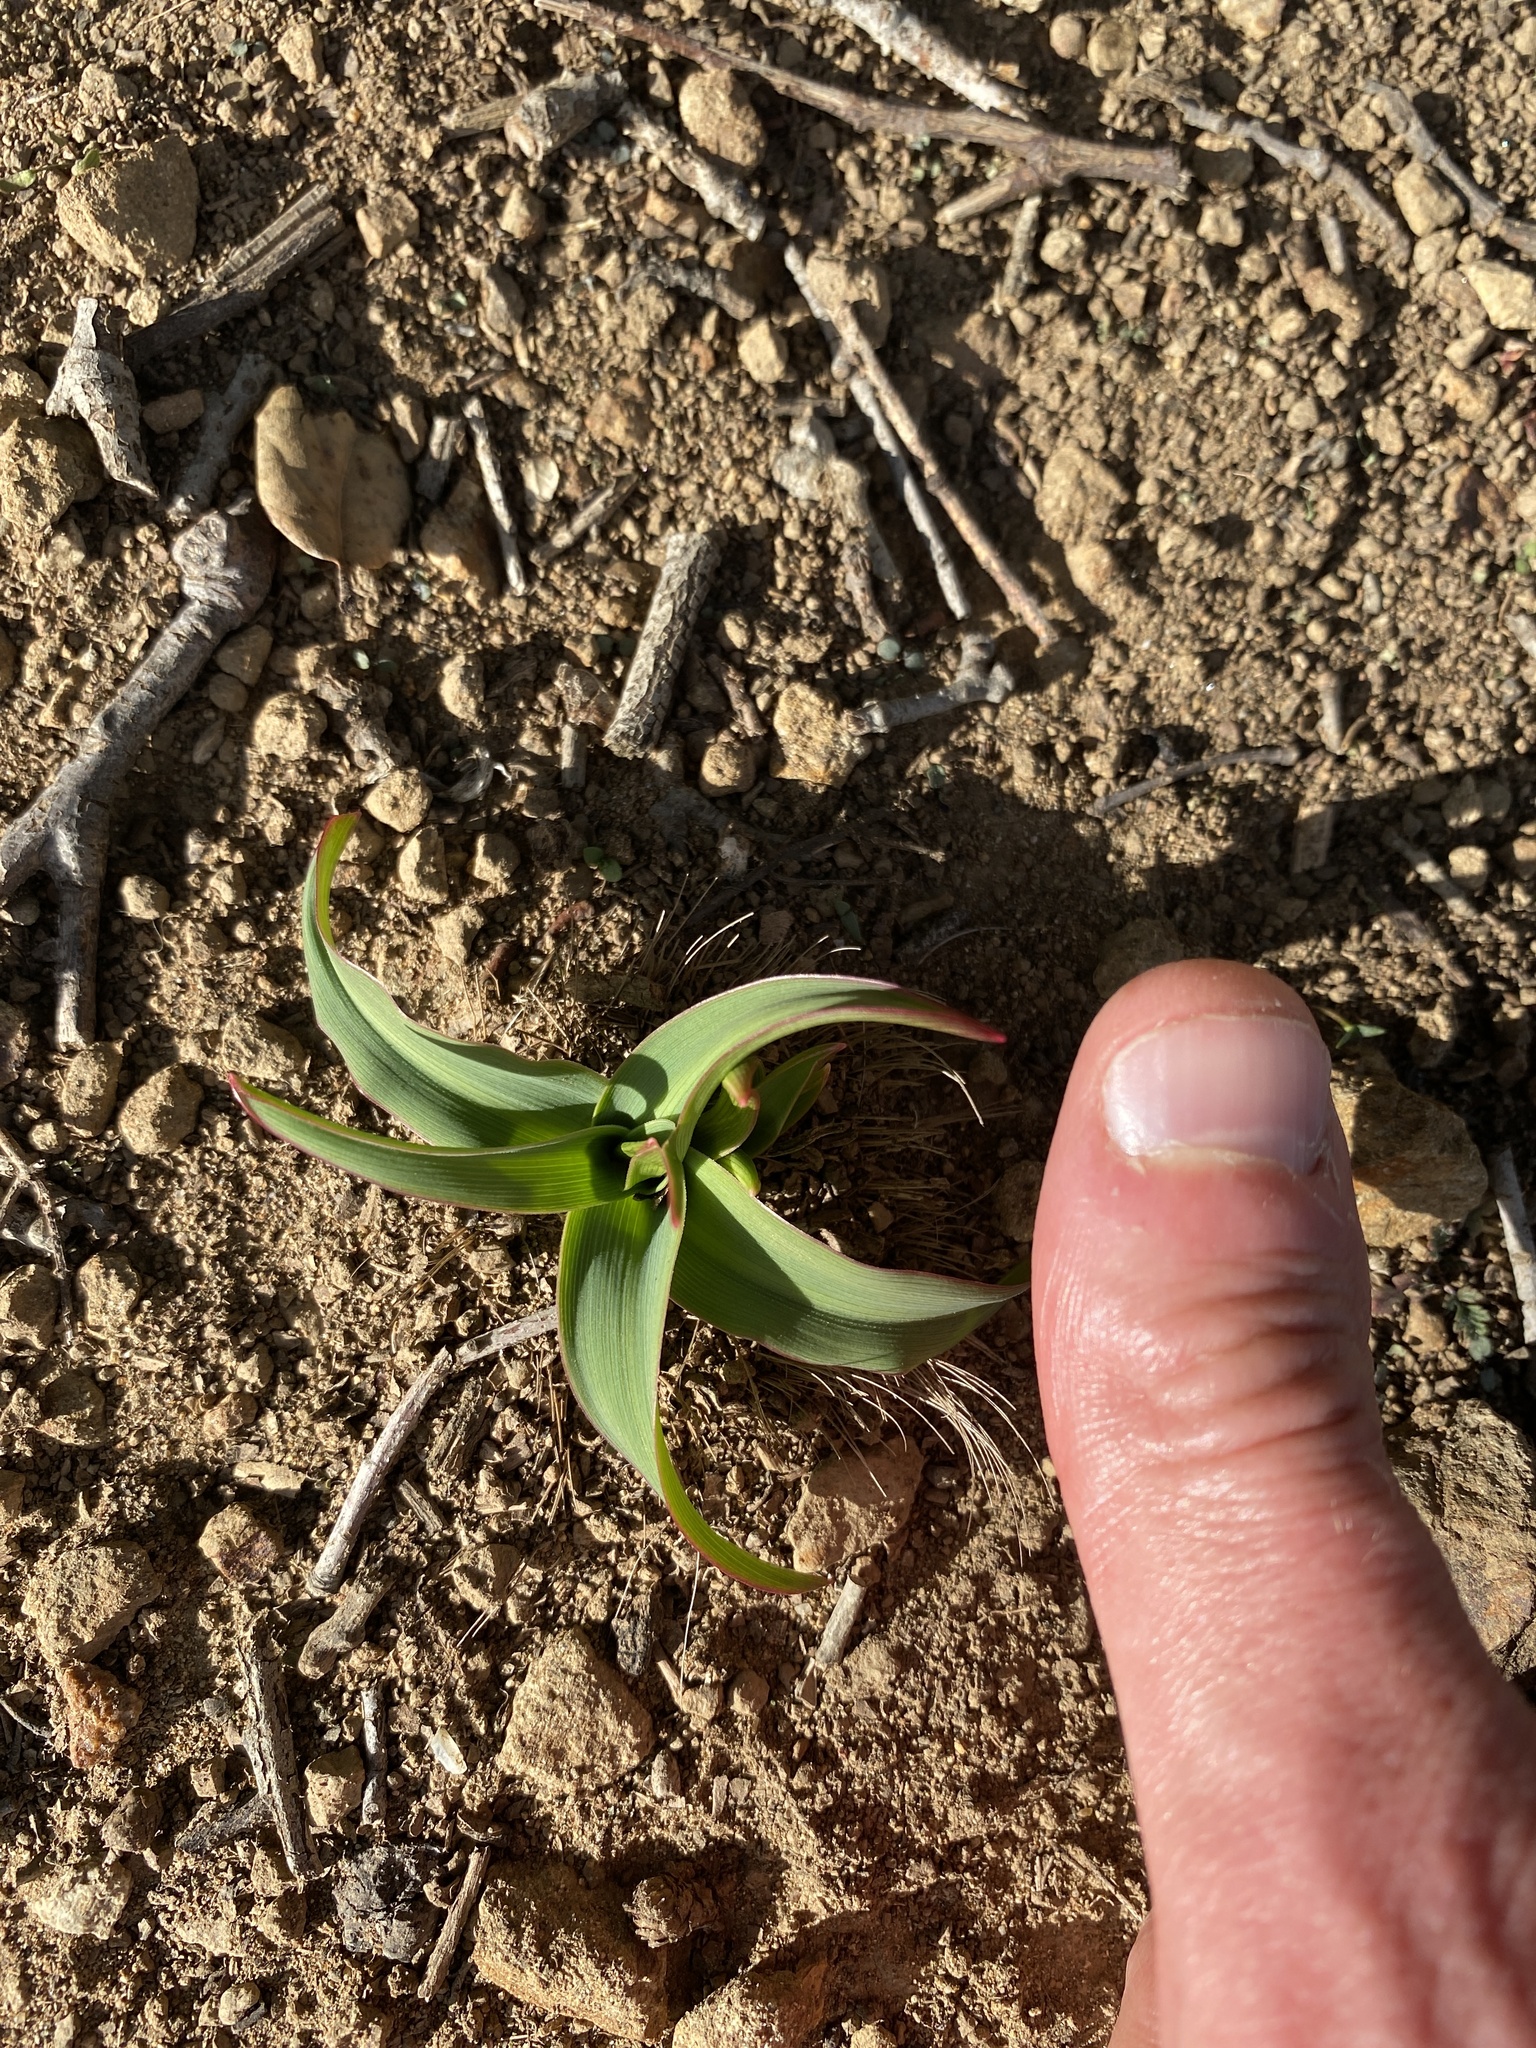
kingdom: Plantae
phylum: Tracheophyta
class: Liliopsida
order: Asparagales
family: Asparagaceae
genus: Chlorogalum
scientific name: Chlorogalum pomeridianum
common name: Amole
